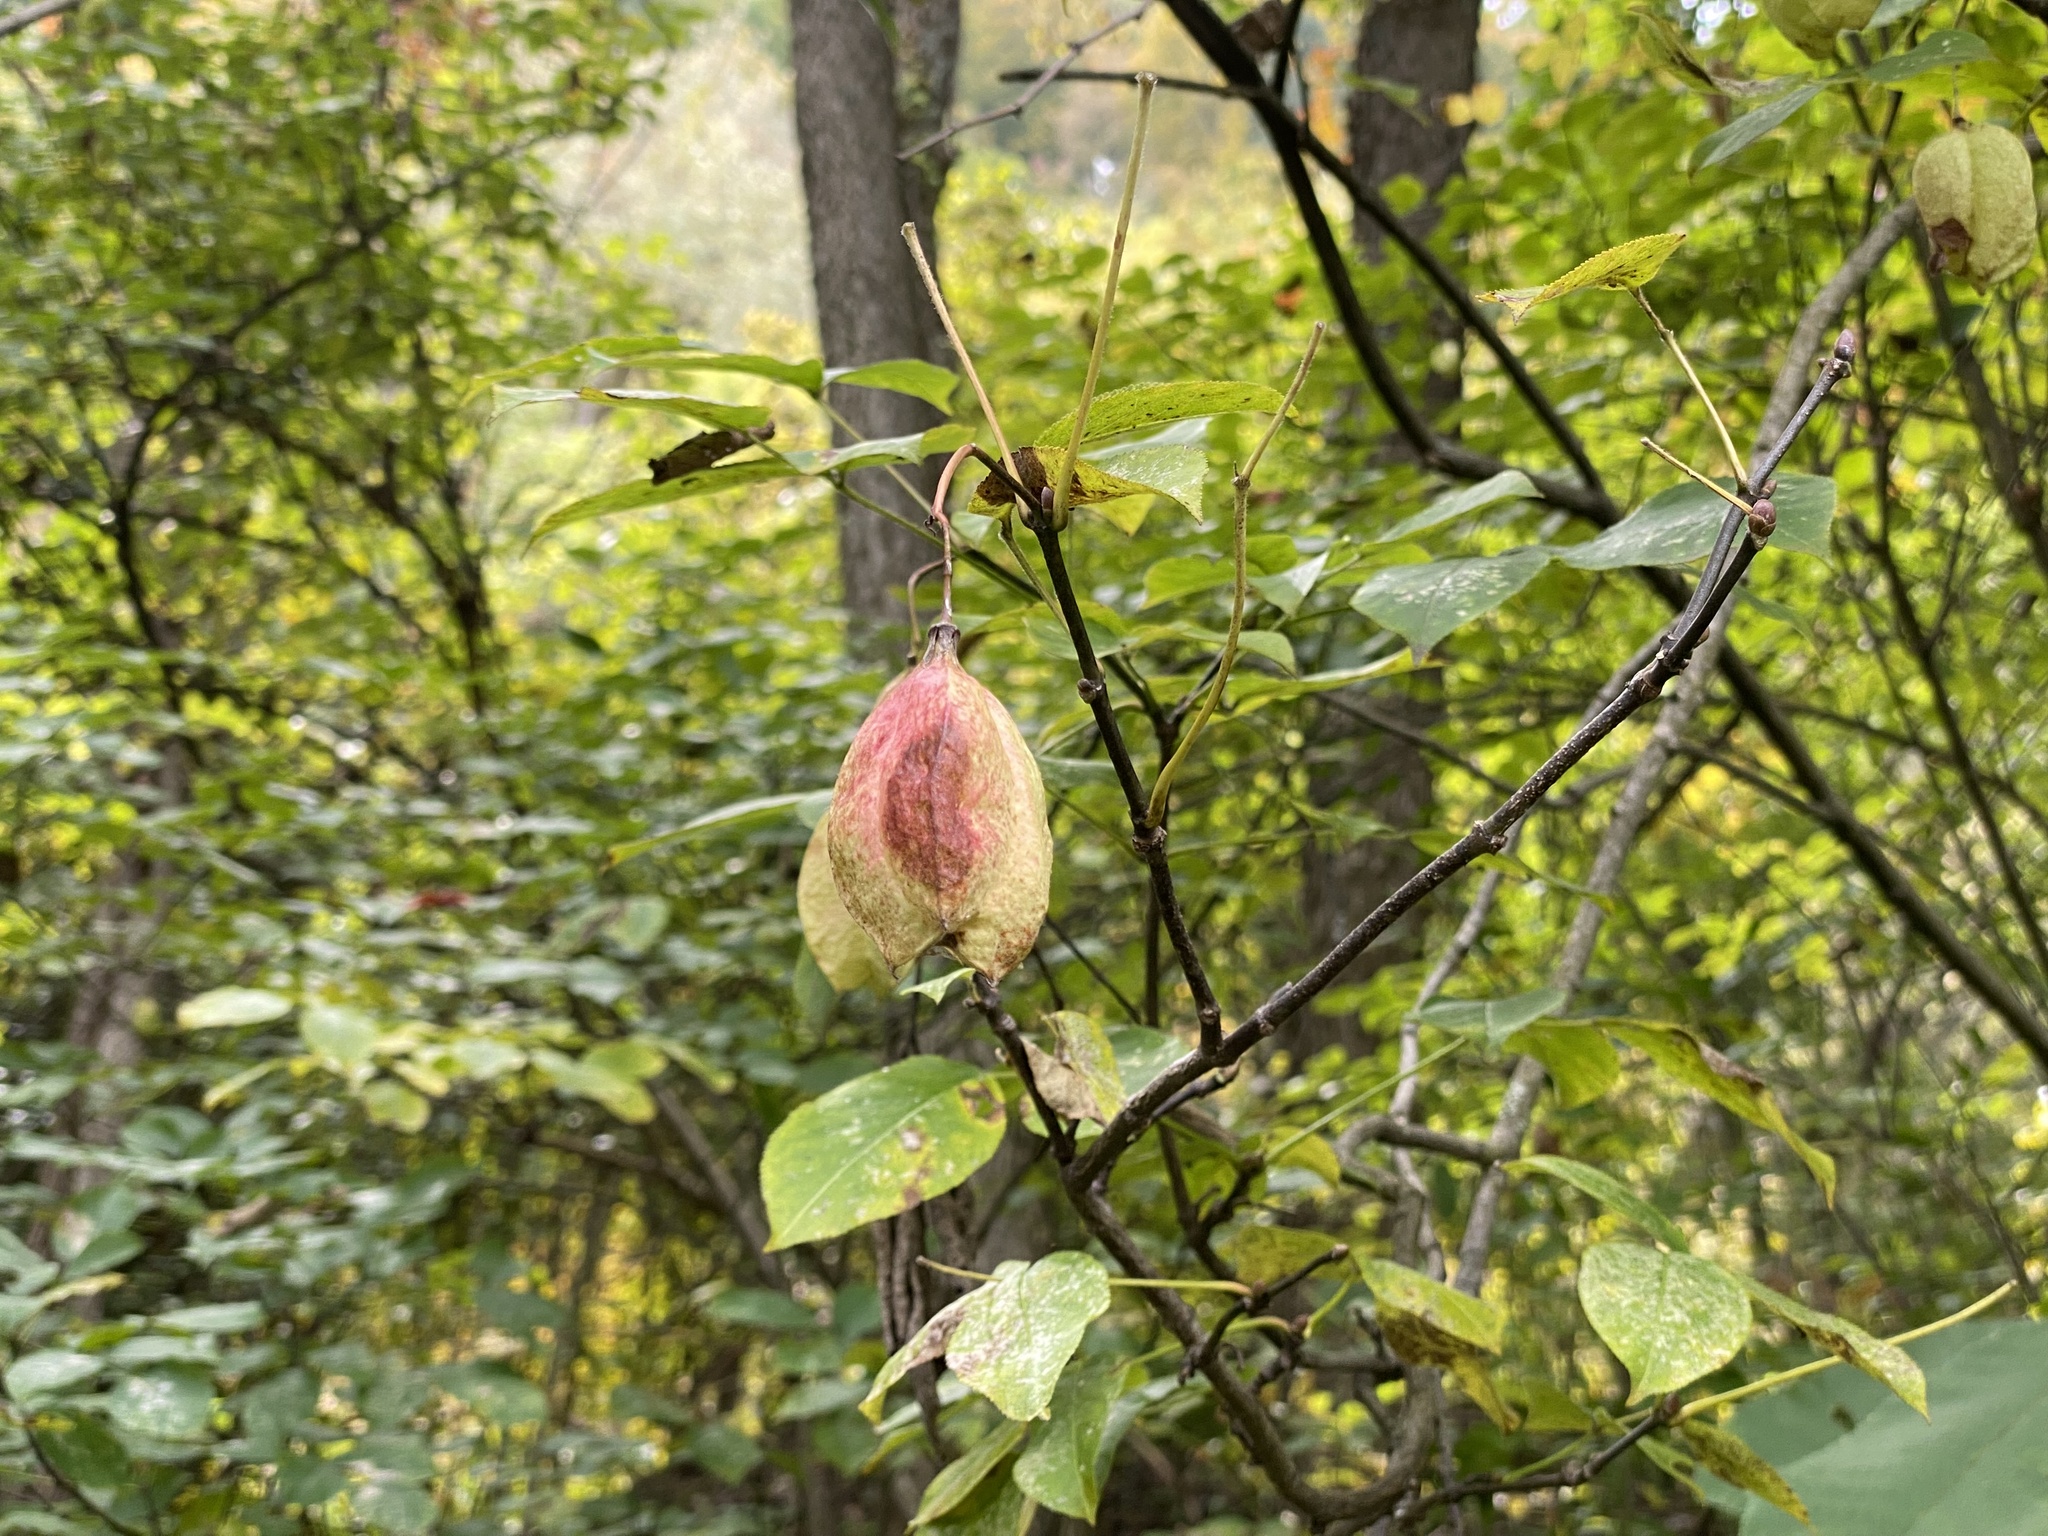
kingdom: Plantae
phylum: Tracheophyta
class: Magnoliopsida
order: Crossosomatales
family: Staphyleaceae
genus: Staphylea
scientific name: Staphylea trifolia
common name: American bladdernut
